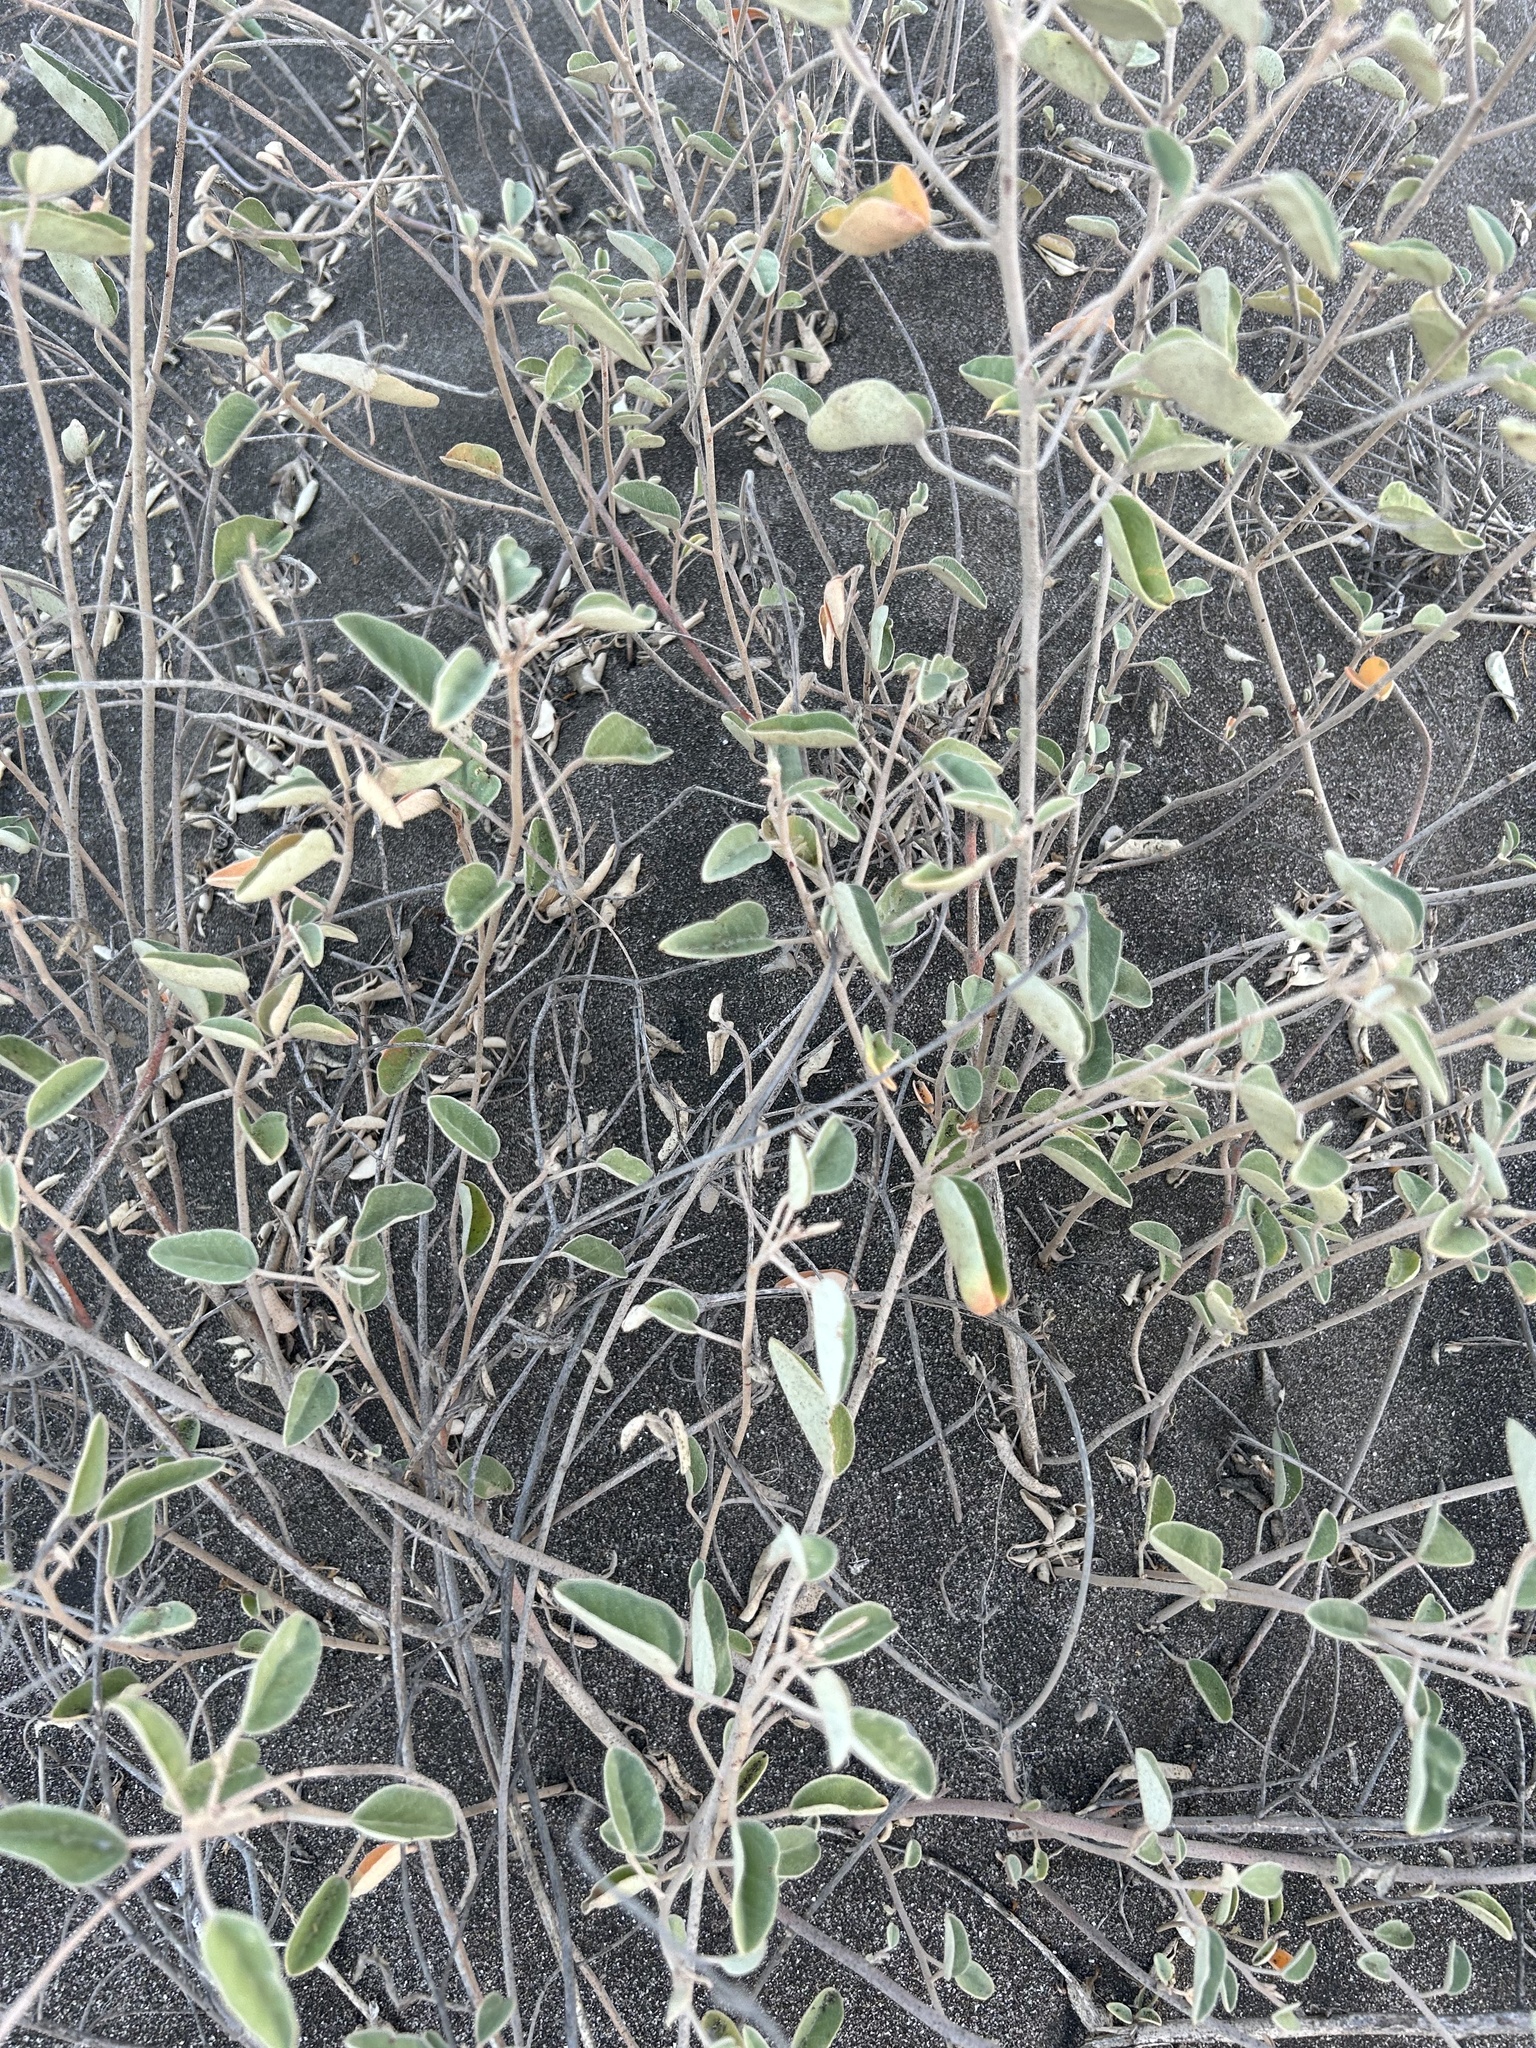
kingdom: Plantae
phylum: Tracheophyta
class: Magnoliopsida
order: Malpighiales
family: Euphorbiaceae
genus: Croton
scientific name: Croton californicus
